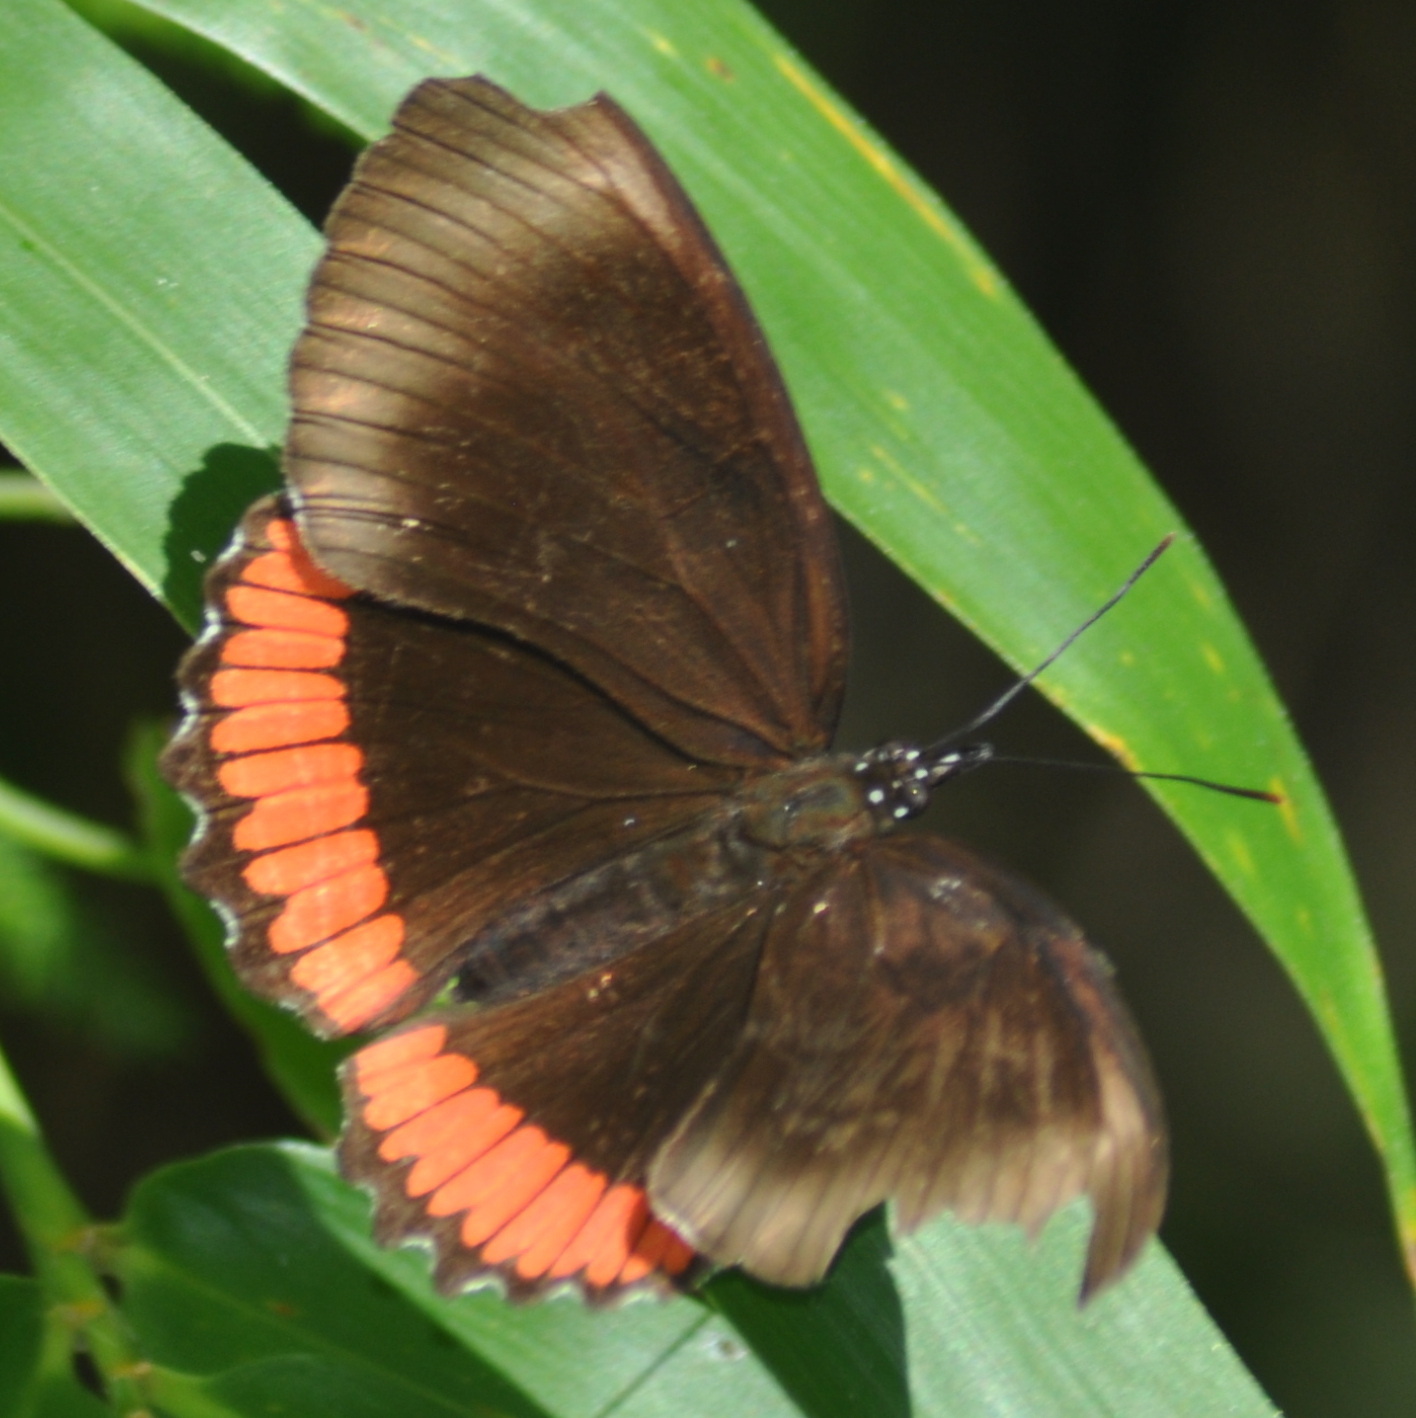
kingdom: Animalia
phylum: Arthropoda
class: Insecta
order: Lepidoptera
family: Sesiidae
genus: Sesia
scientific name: Sesia Biblis hyperia
